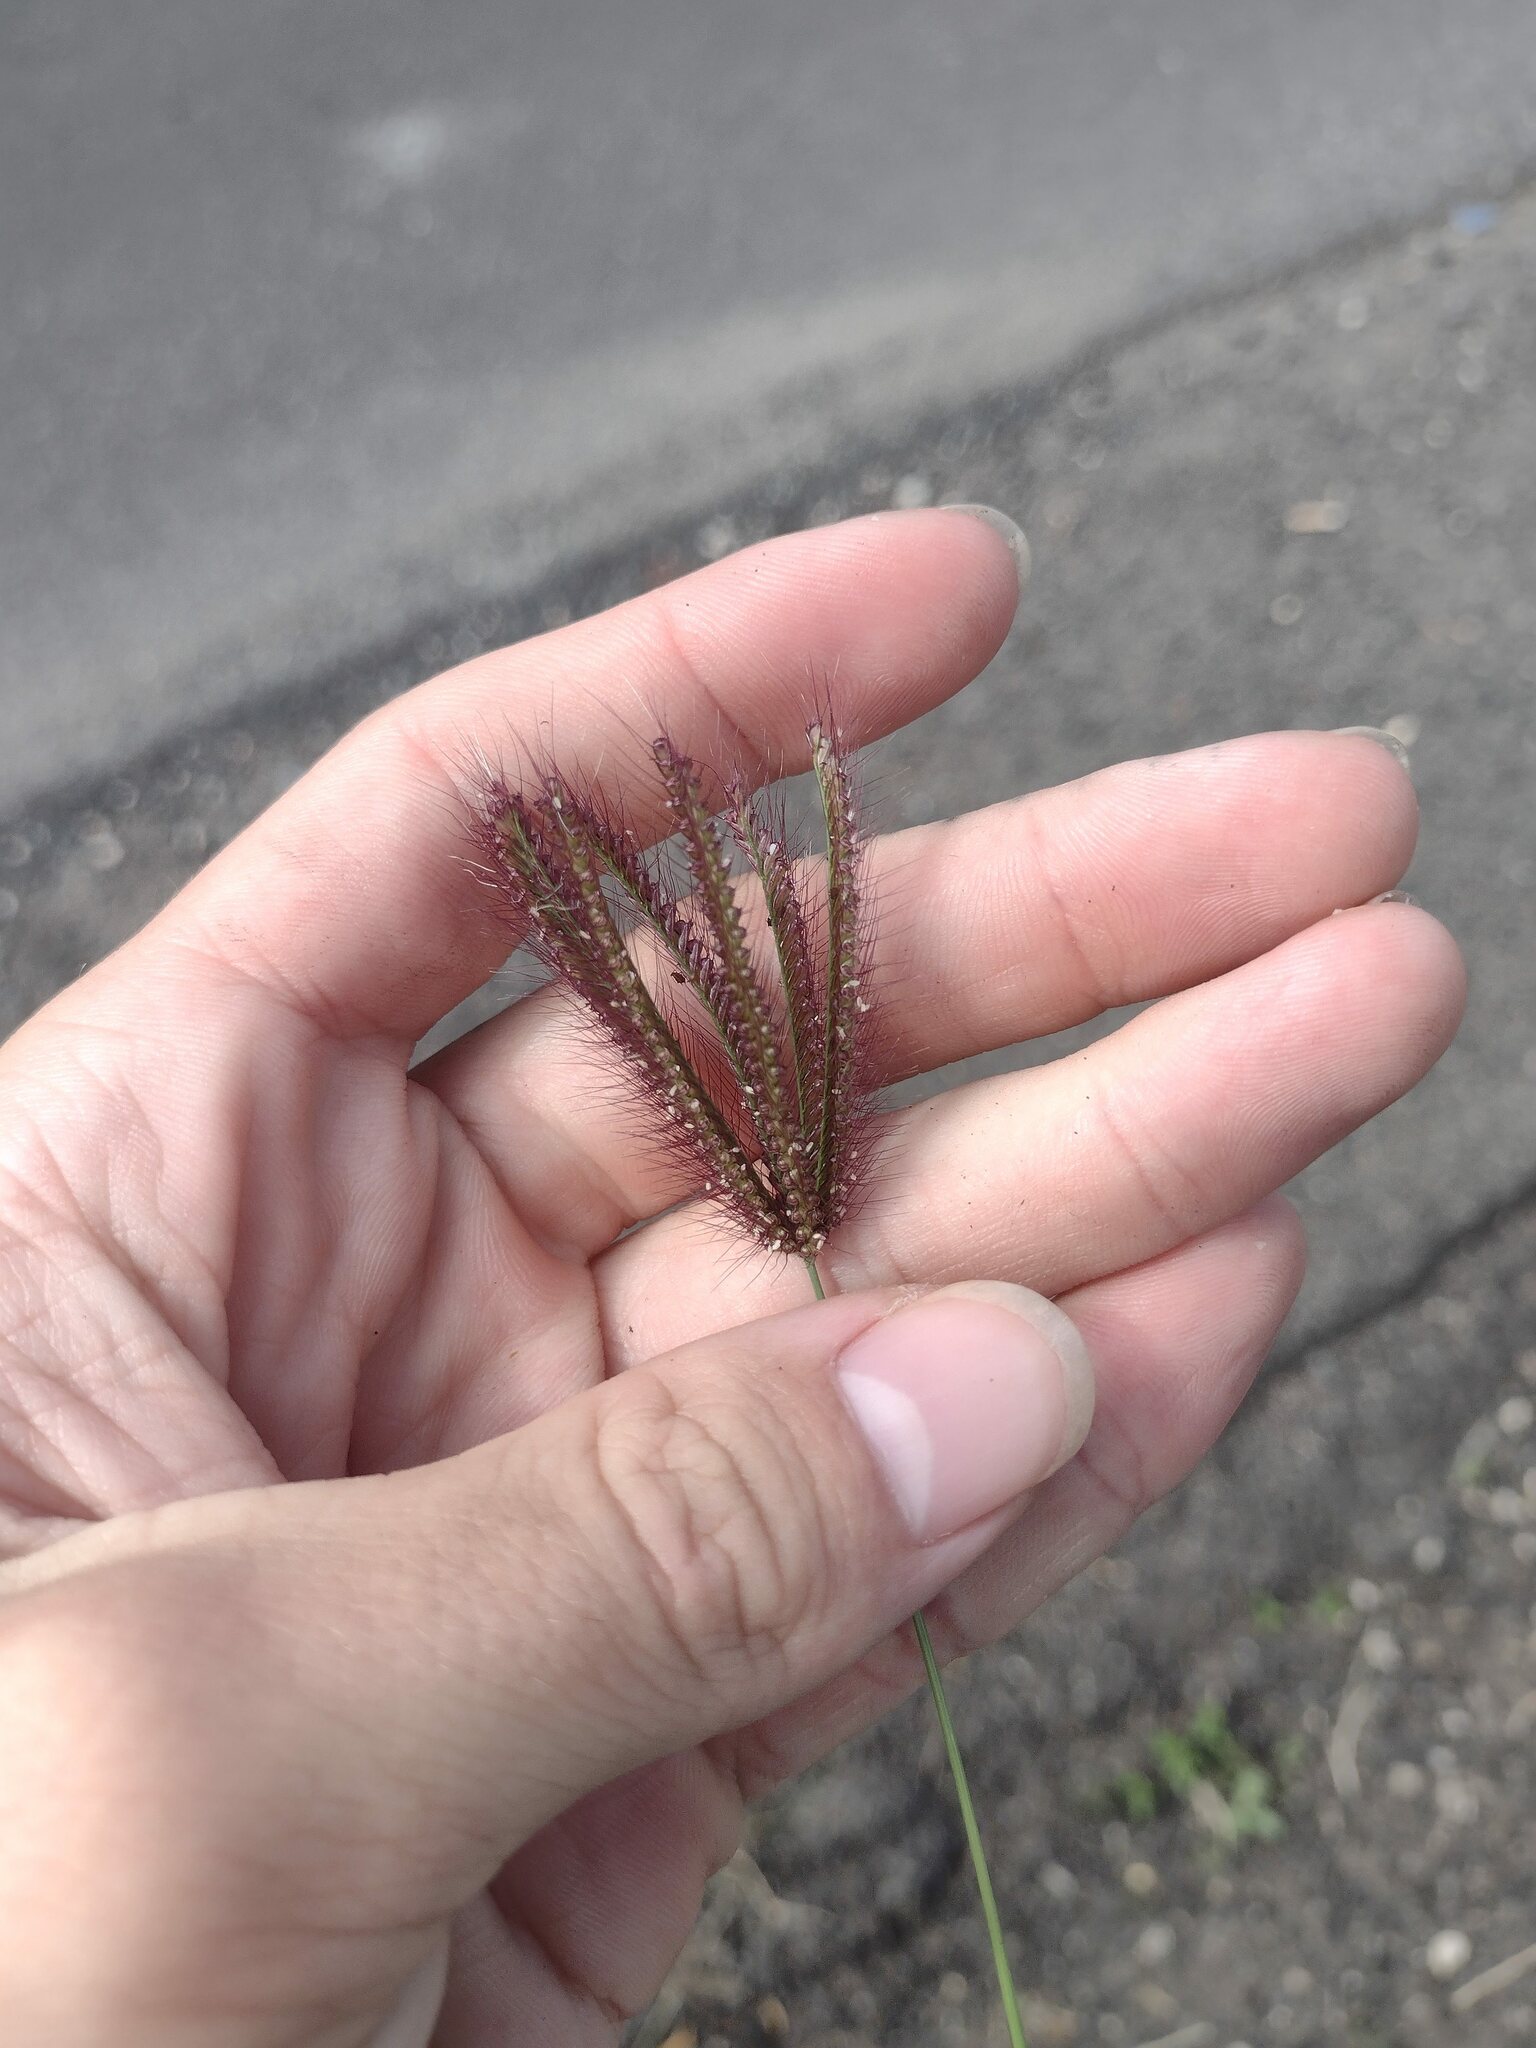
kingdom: Plantae
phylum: Tracheophyta
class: Liliopsida
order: Poales
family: Poaceae
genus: Chloris
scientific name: Chloris barbata
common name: Swollen fingergrass
